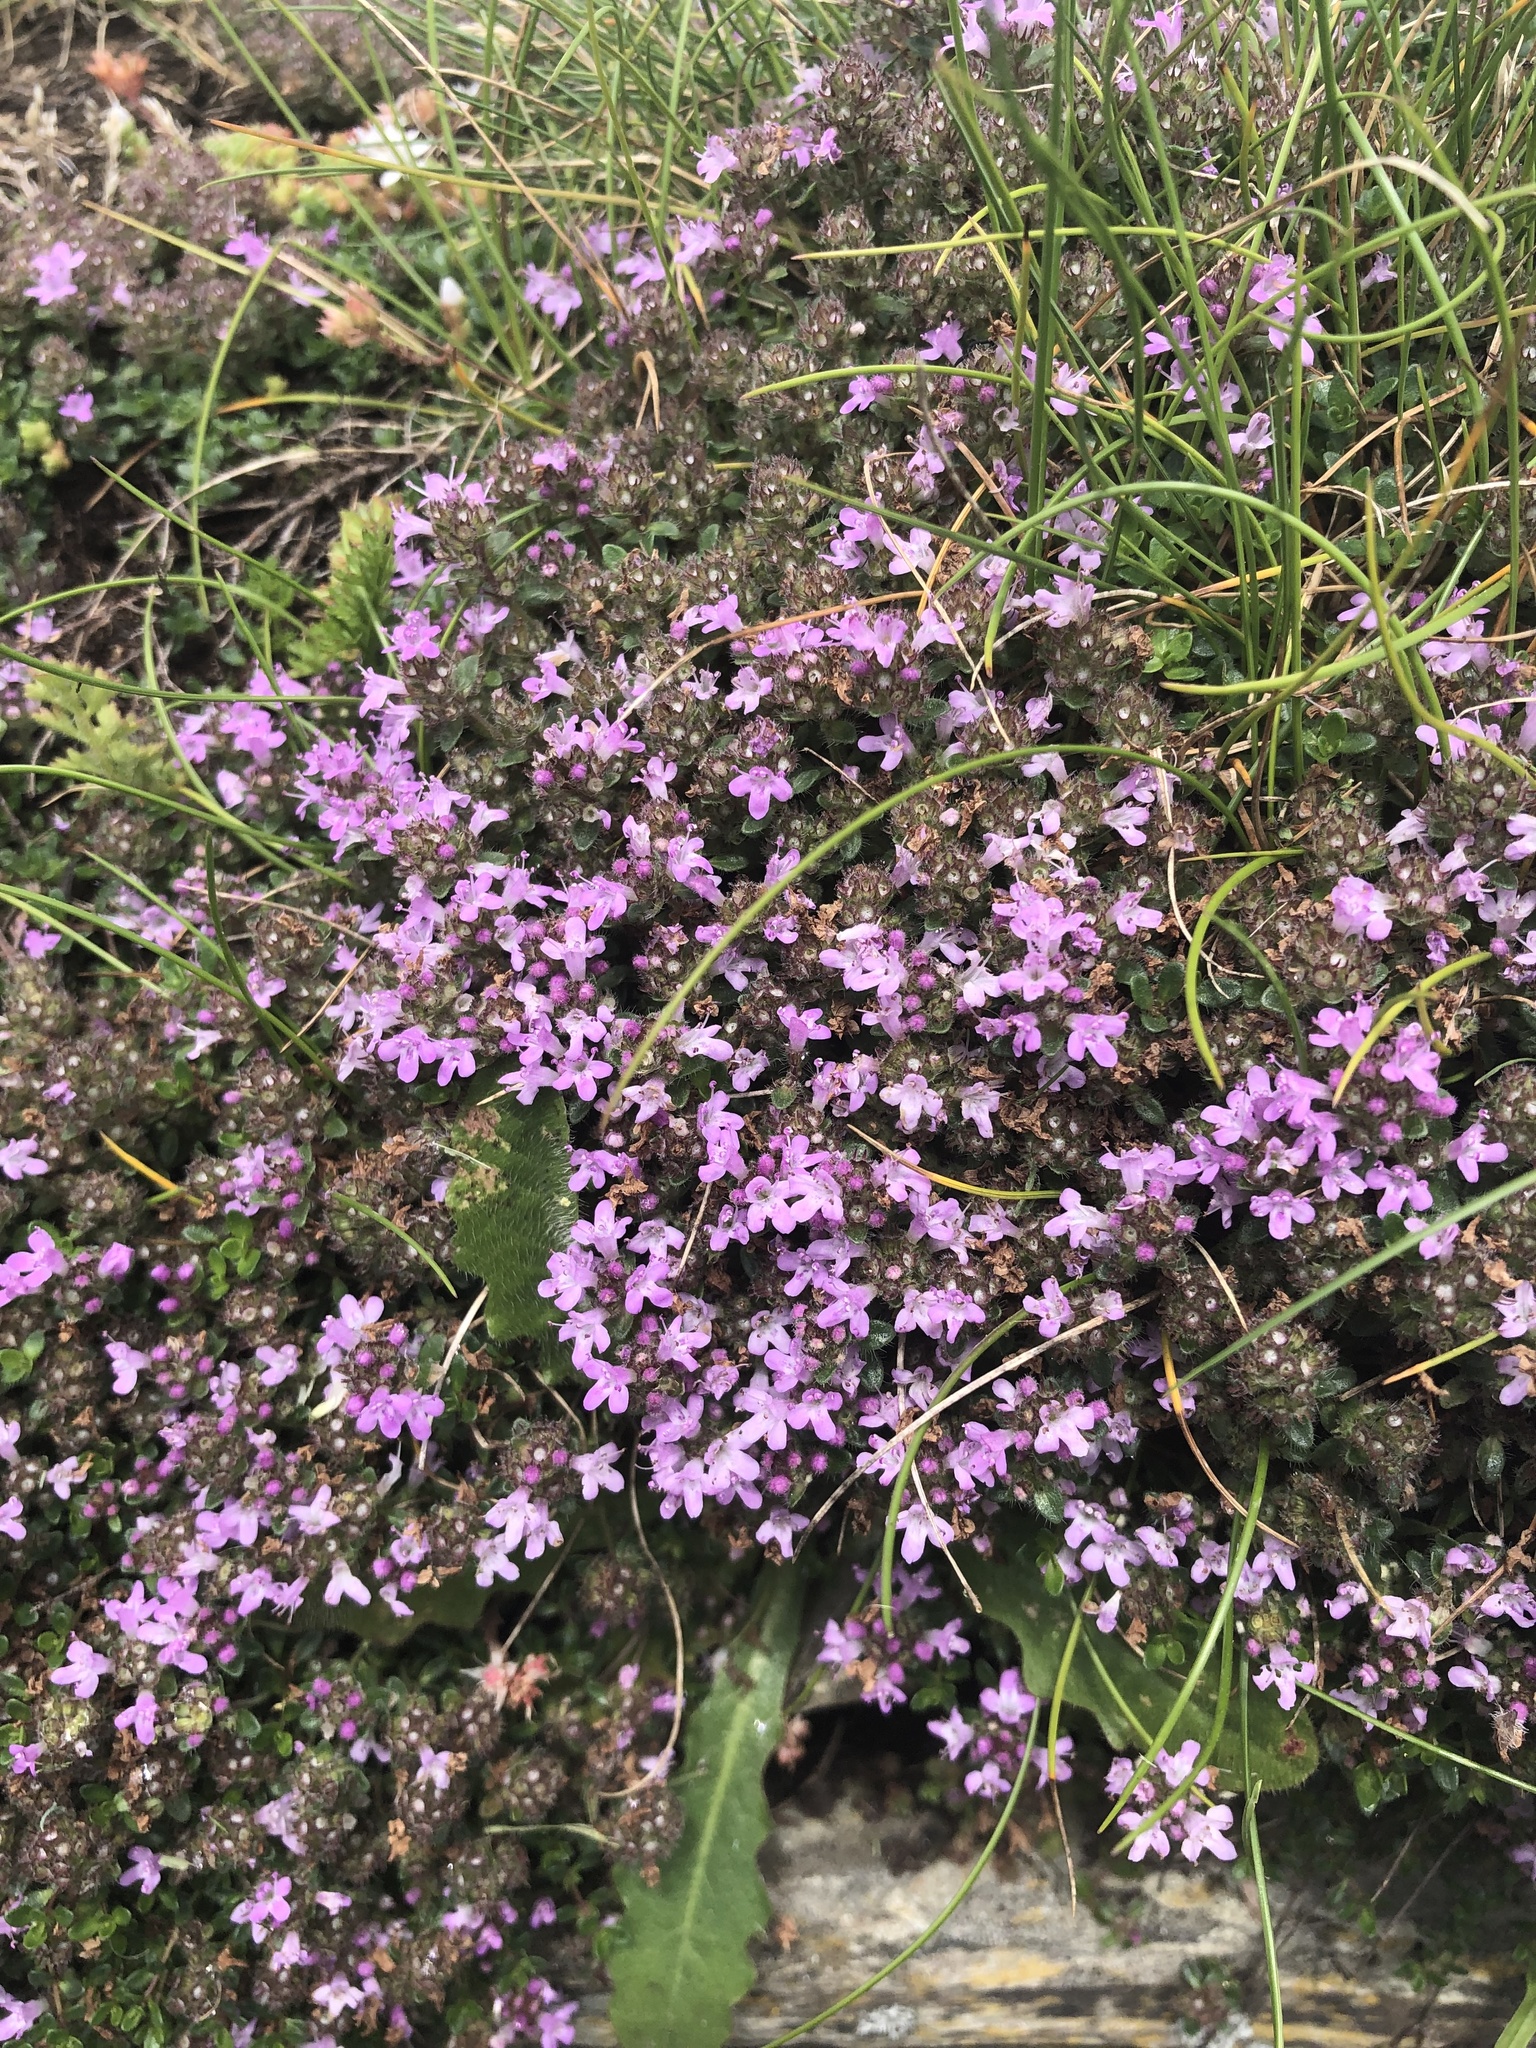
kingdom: Plantae
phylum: Tracheophyta
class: Magnoliopsida
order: Lamiales
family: Lamiaceae
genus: Thymus
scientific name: Thymus praecox
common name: Wild thyme
